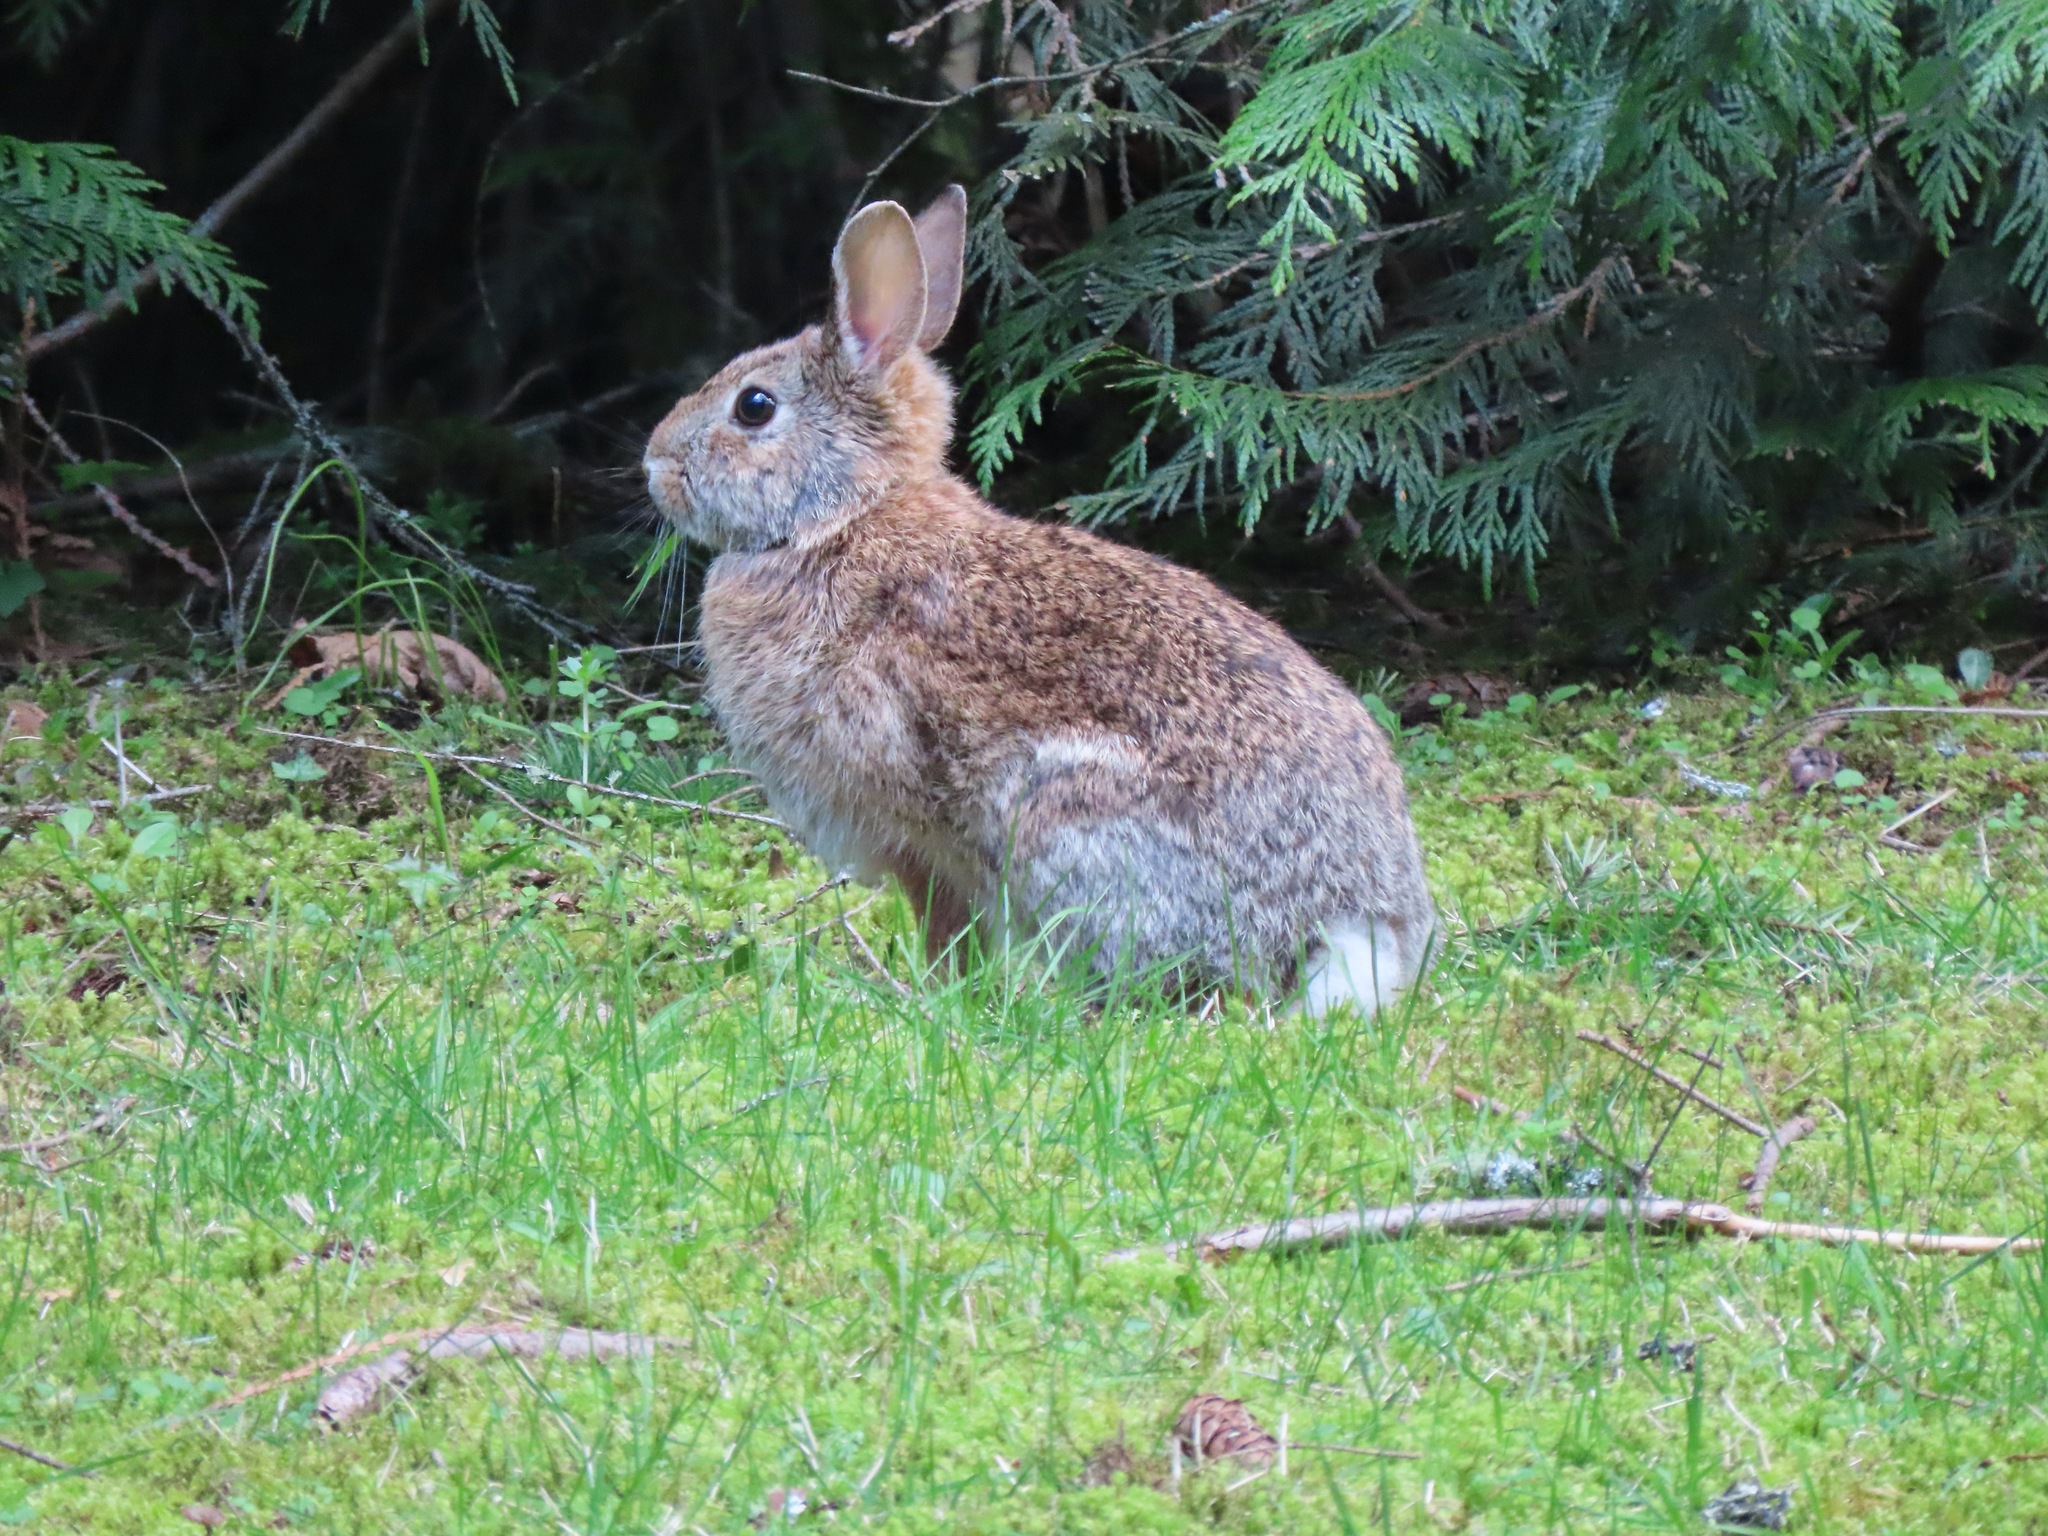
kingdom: Animalia
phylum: Chordata
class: Mammalia
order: Lagomorpha
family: Leporidae
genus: Sylvilagus
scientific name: Sylvilagus floridanus
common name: Eastern cottontail
